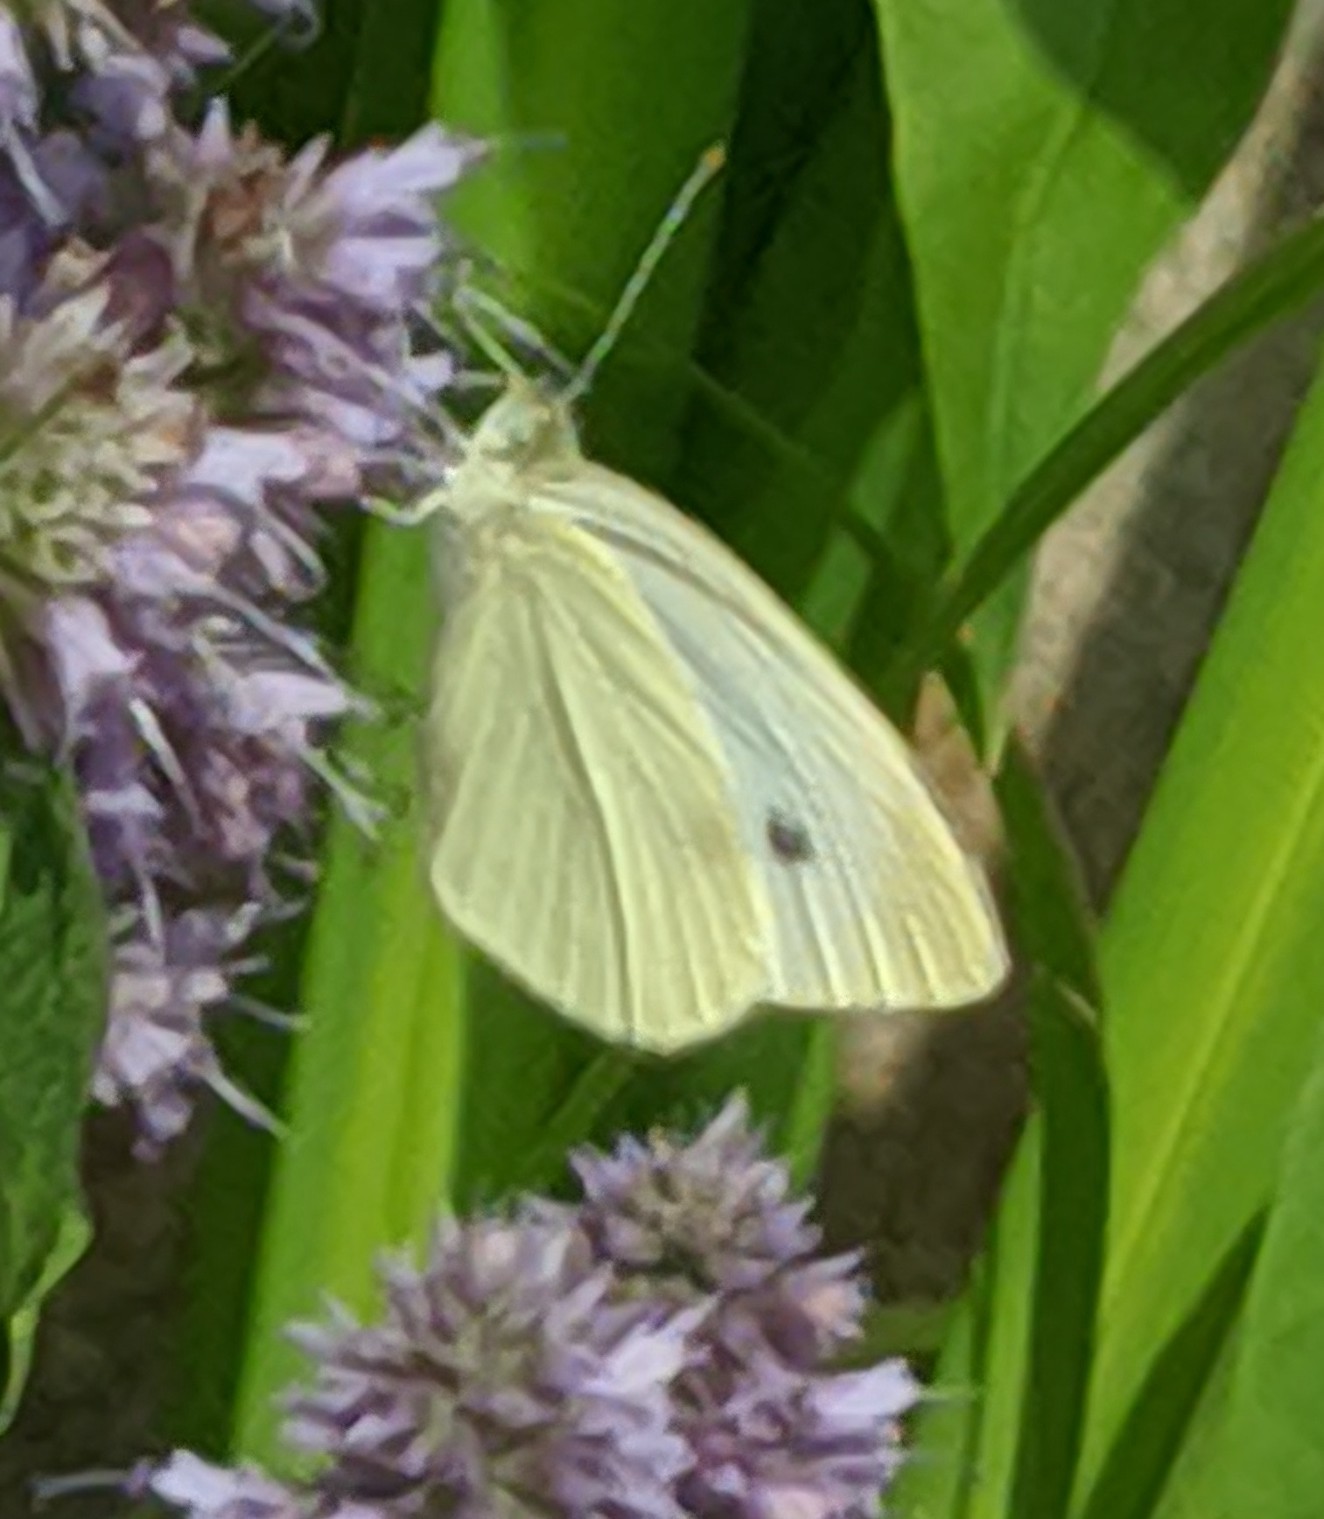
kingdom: Animalia
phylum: Arthropoda
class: Insecta
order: Lepidoptera
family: Pieridae
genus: Pieris
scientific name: Pieris rapae
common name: Small white
